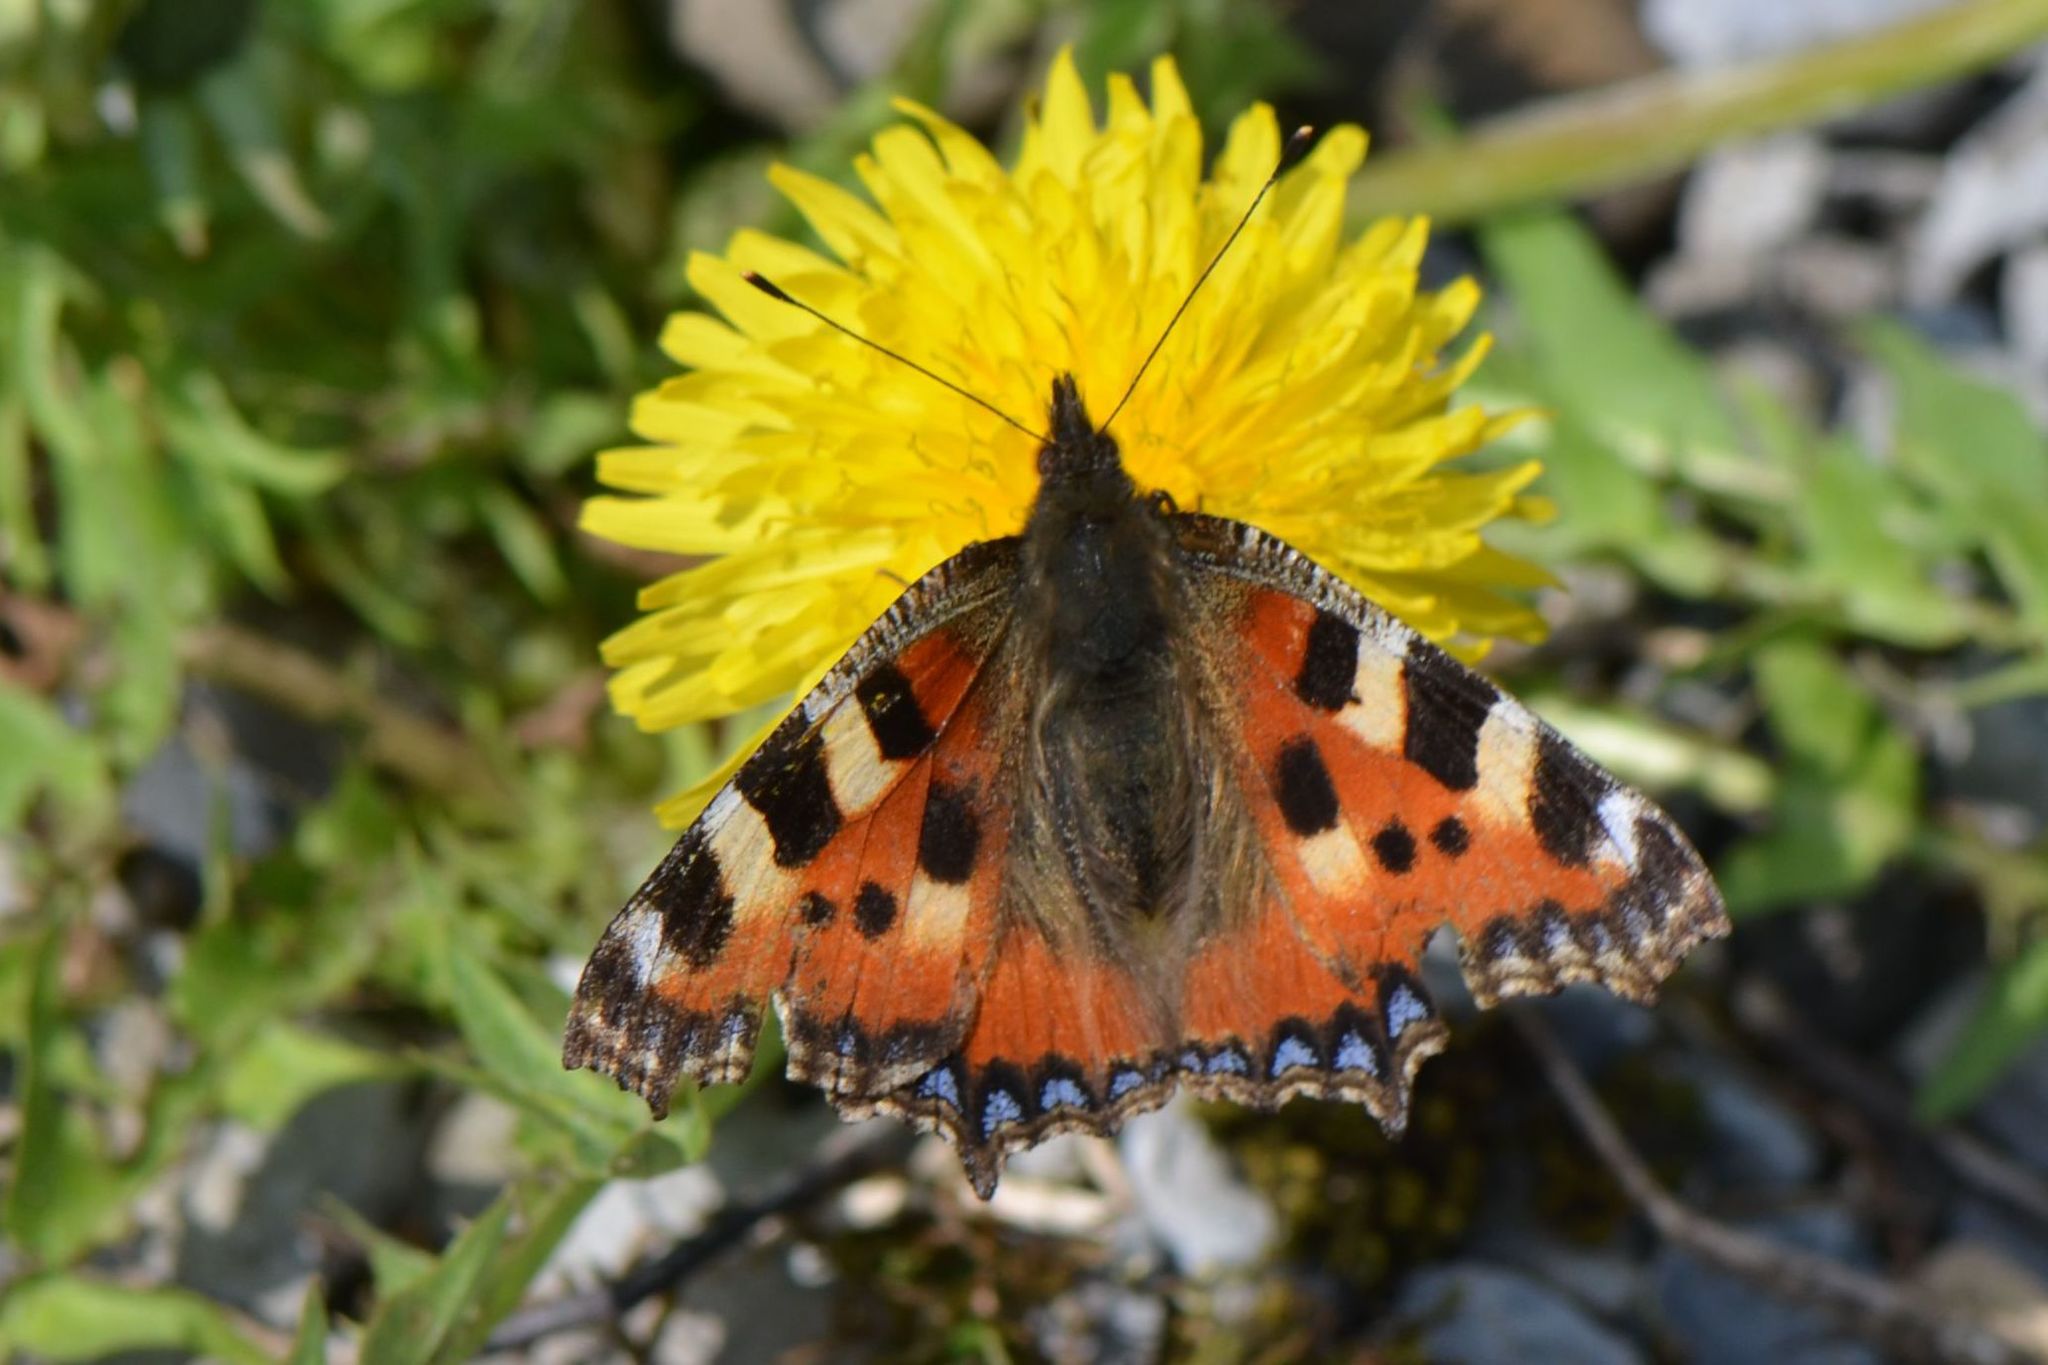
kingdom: Animalia
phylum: Arthropoda
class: Insecta
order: Lepidoptera
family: Nymphalidae
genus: Aglais
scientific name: Aglais urticae
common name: Small tortoiseshell
